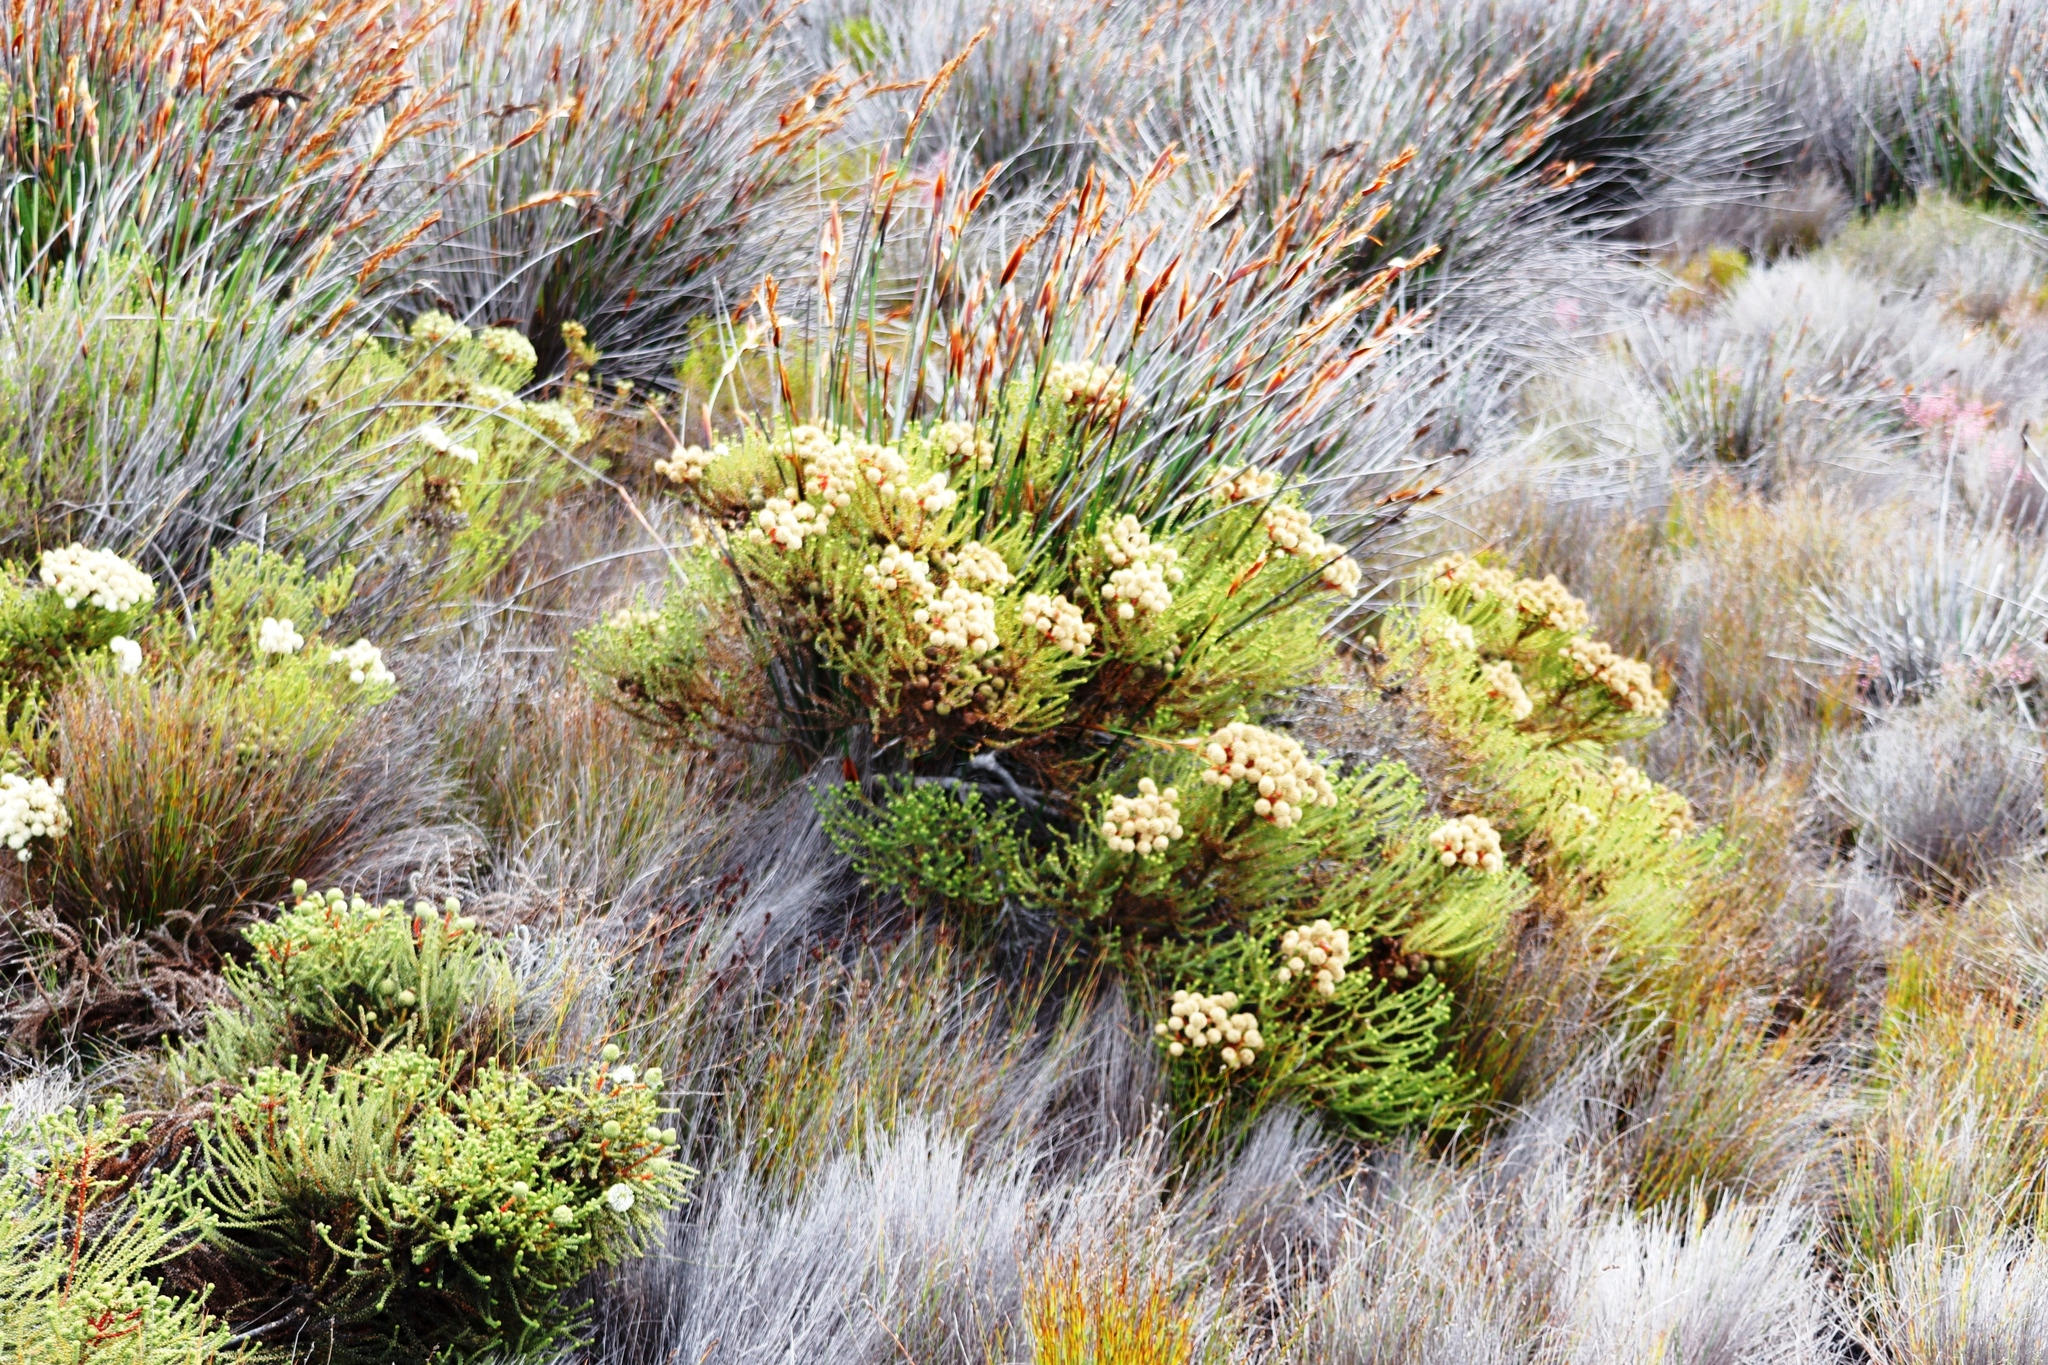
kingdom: Plantae
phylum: Tracheophyta
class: Magnoliopsida
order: Bruniales
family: Bruniaceae
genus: Berzelia
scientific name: Berzelia abrotanoides
